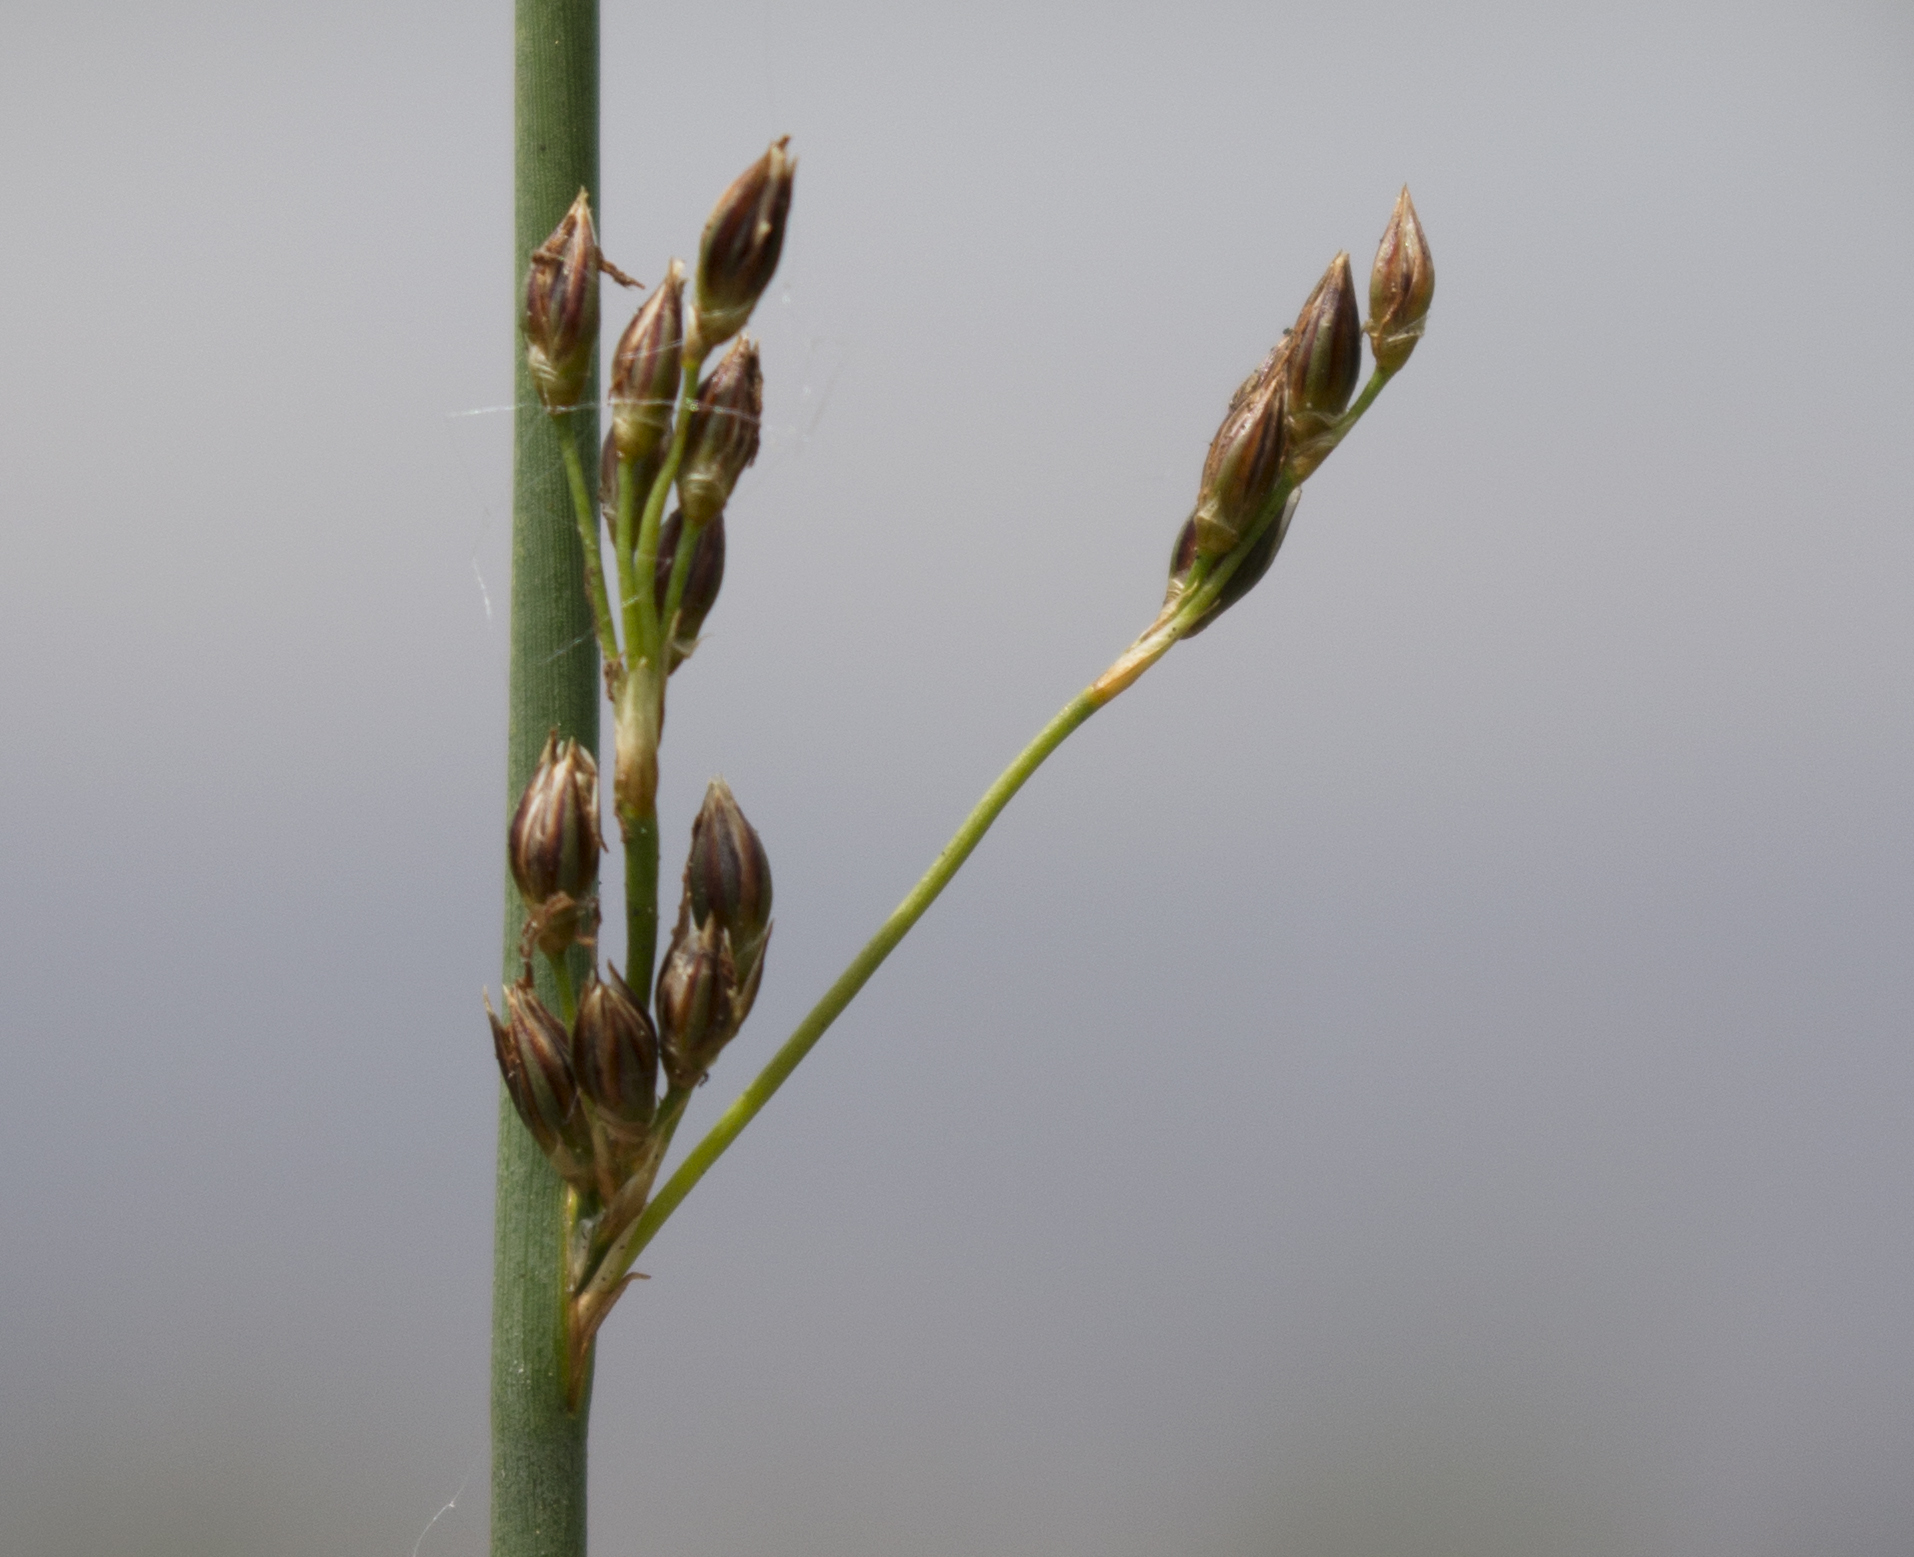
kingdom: Plantae
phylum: Tracheophyta
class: Liliopsida
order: Poales
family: Juncaceae
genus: Juncus
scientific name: Juncus effusus
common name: Soft rush
